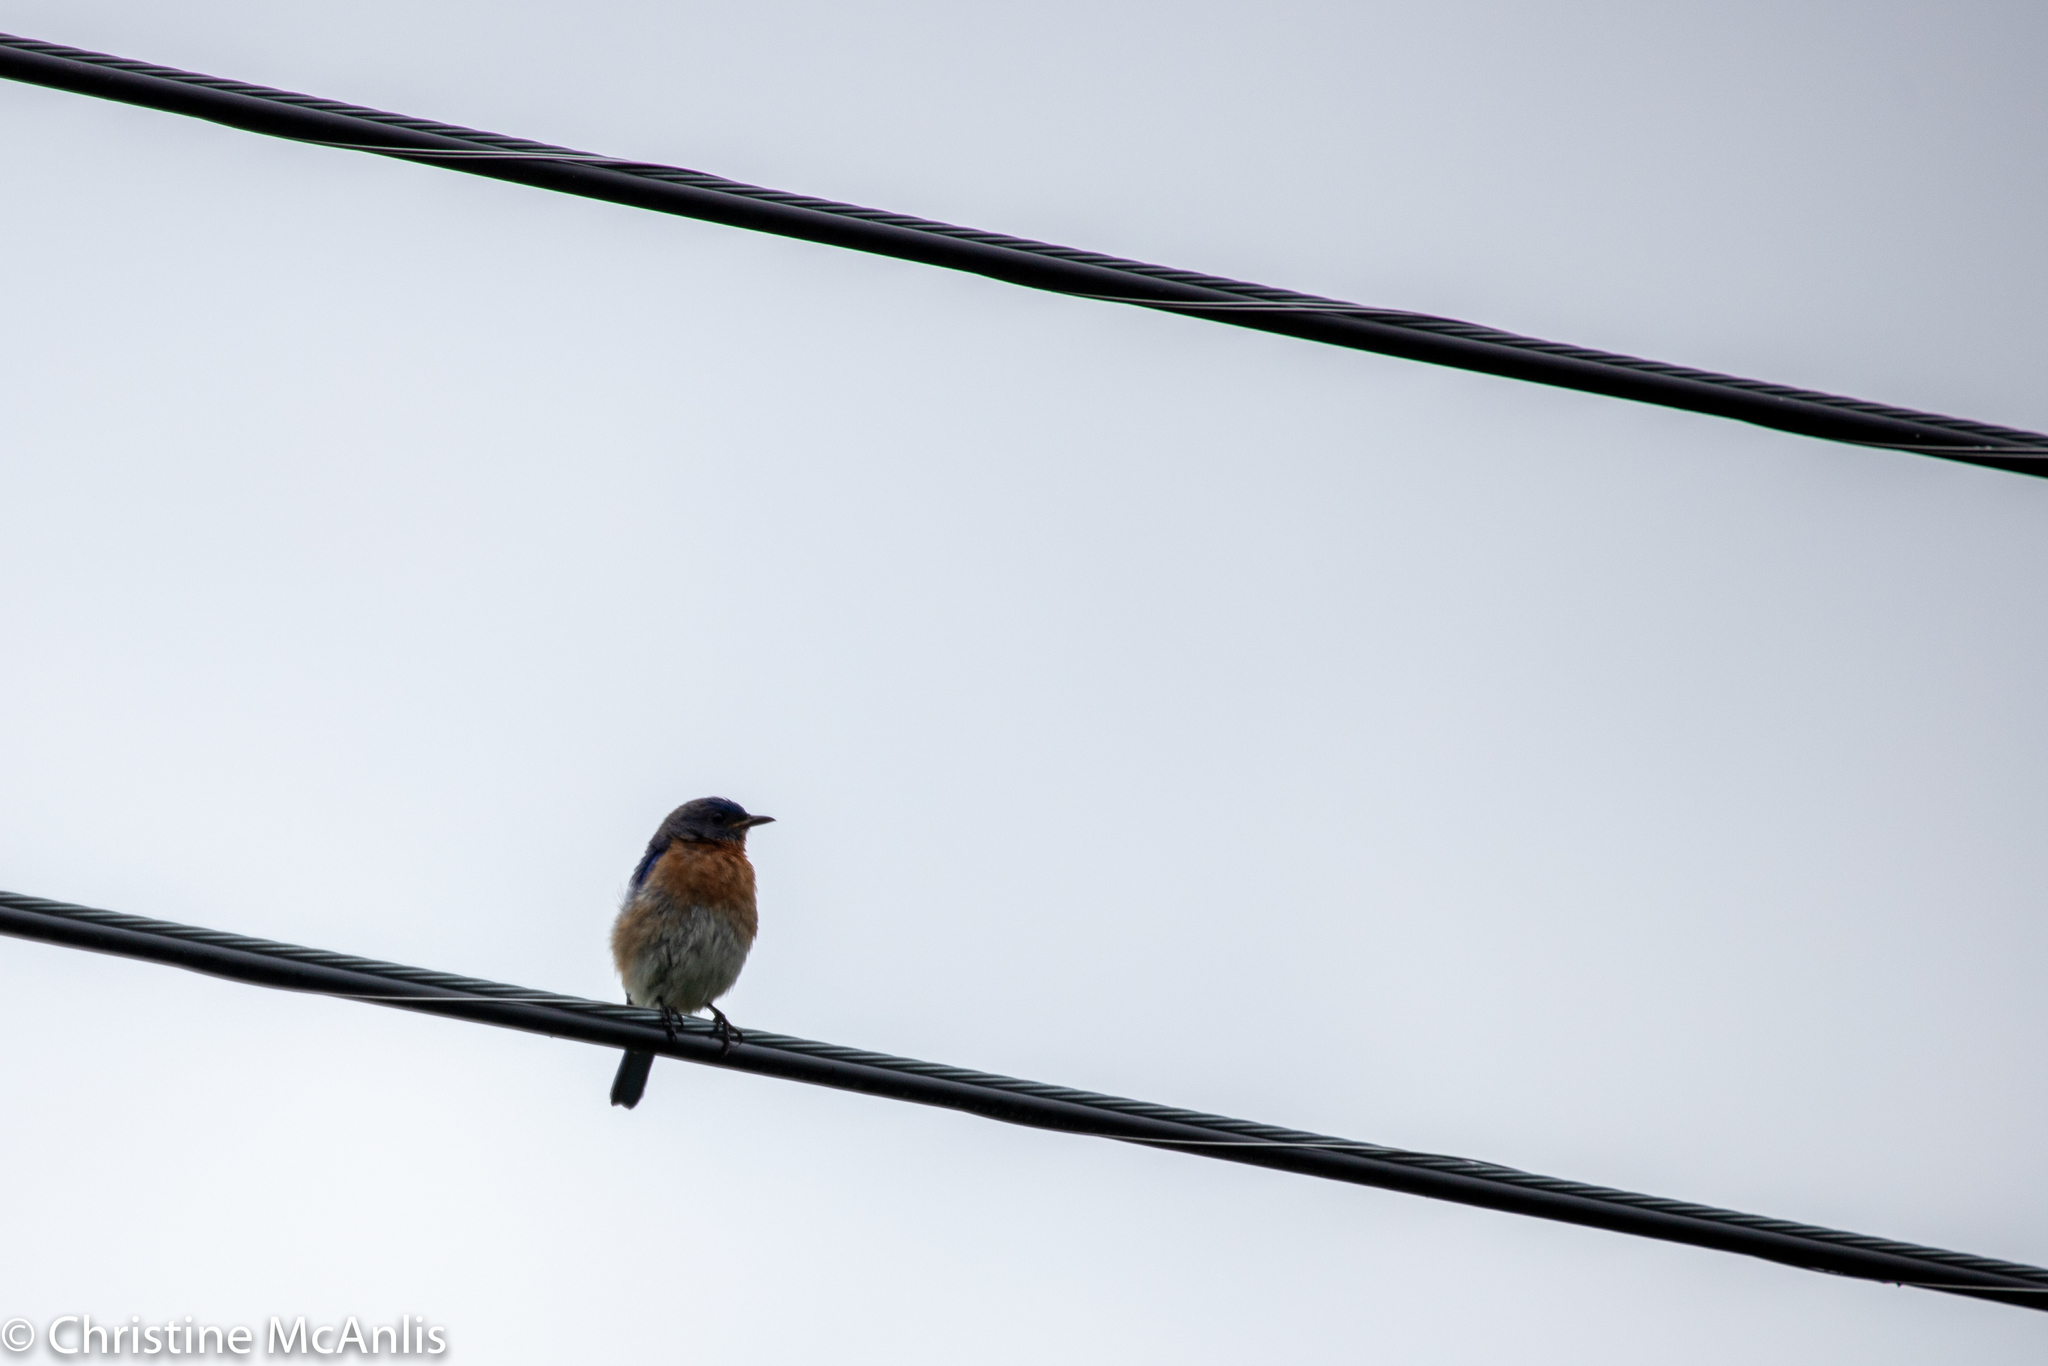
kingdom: Animalia
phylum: Chordata
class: Aves
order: Passeriformes
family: Turdidae
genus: Sialia
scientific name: Sialia sialis
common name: Eastern bluebird
